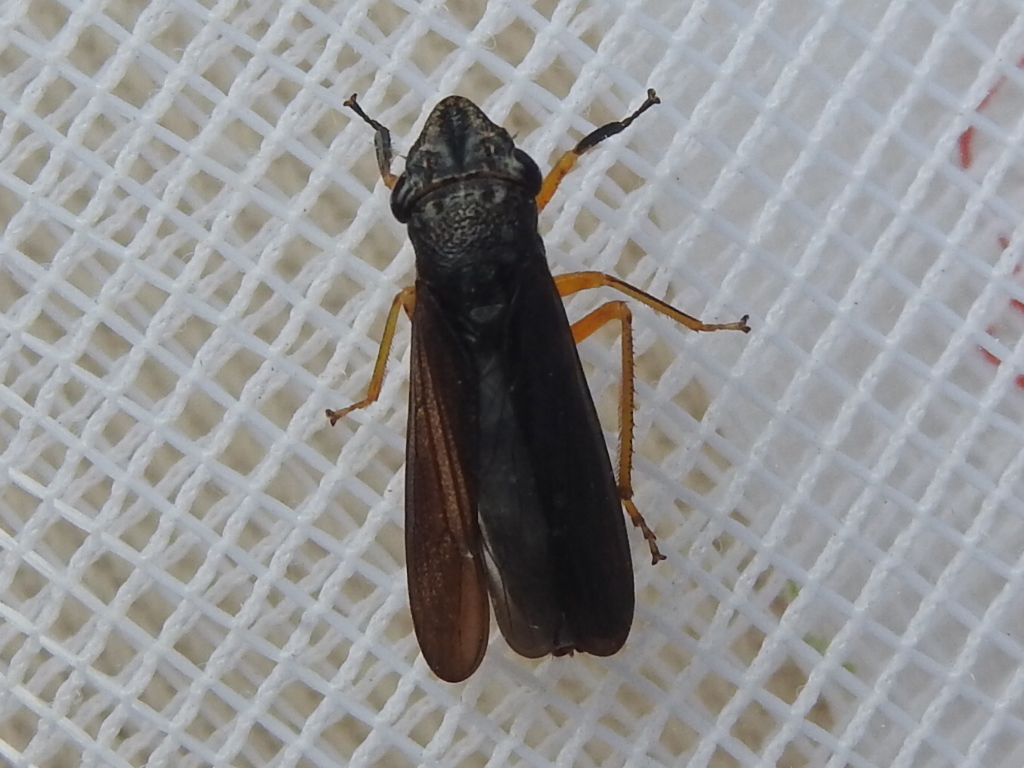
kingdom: Animalia
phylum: Arthropoda
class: Insecta
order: Hemiptera
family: Cicadellidae
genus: Homalodisca
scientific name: Homalodisca insolita
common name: Johnson grass sharpshooter
